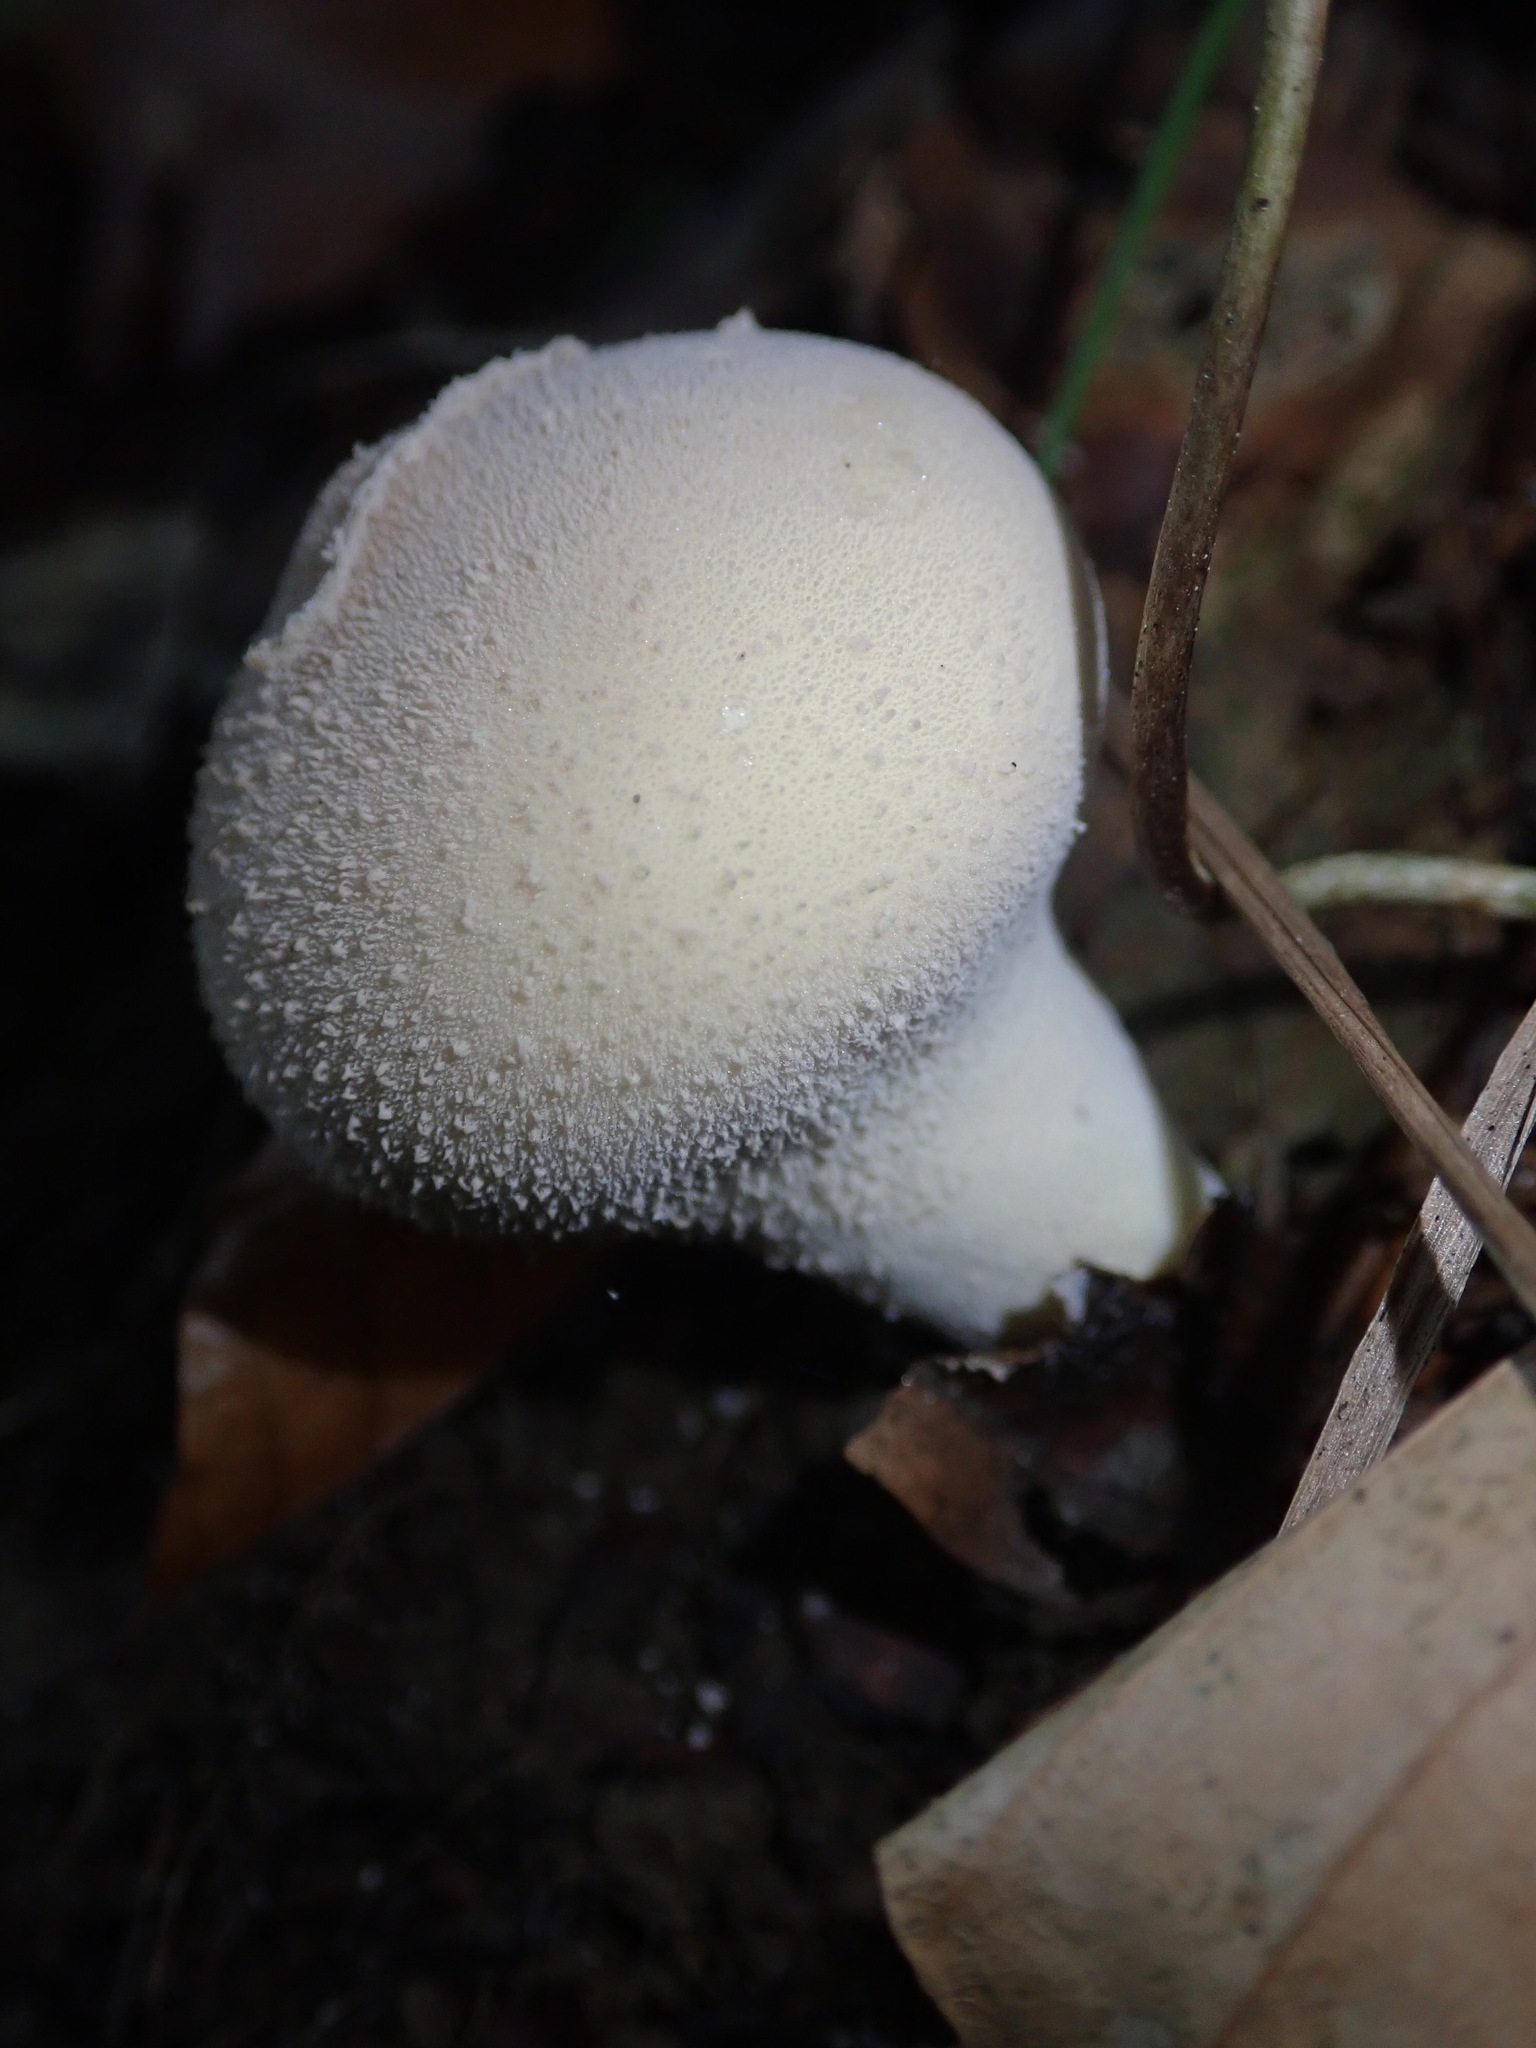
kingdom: Fungi
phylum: Basidiomycota
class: Agaricomycetes
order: Agaricales
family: Lycoperdaceae
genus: Lycoperdon
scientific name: Lycoperdon perlatum
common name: Common puffball
